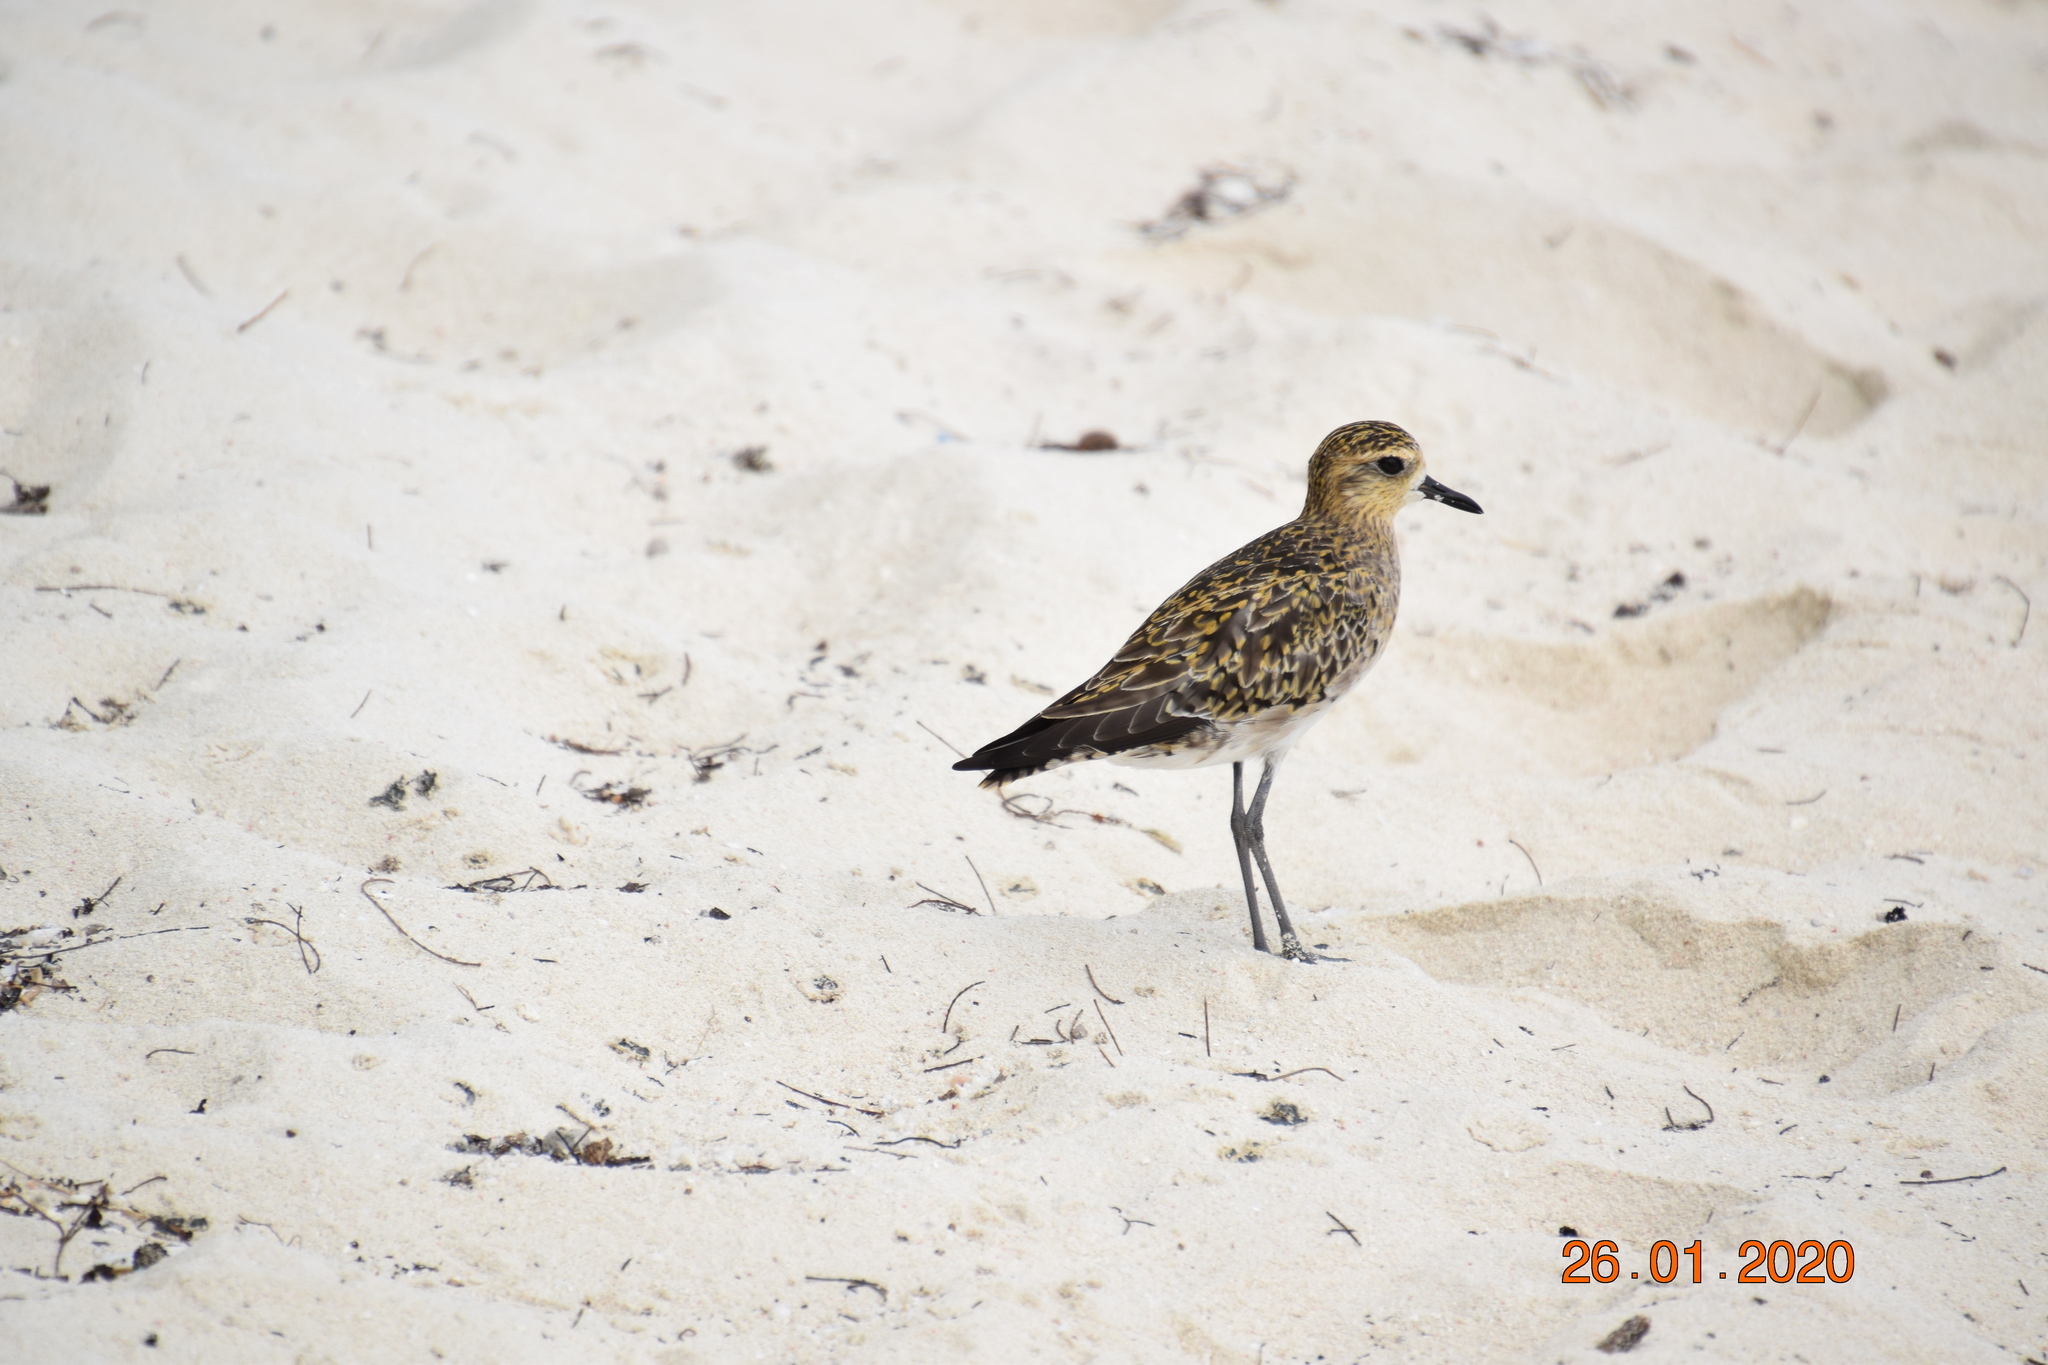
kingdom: Animalia
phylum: Chordata
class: Aves
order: Charadriiformes
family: Charadriidae
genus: Pluvialis
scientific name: Pluvialis fulva
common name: Pacific golden plover
